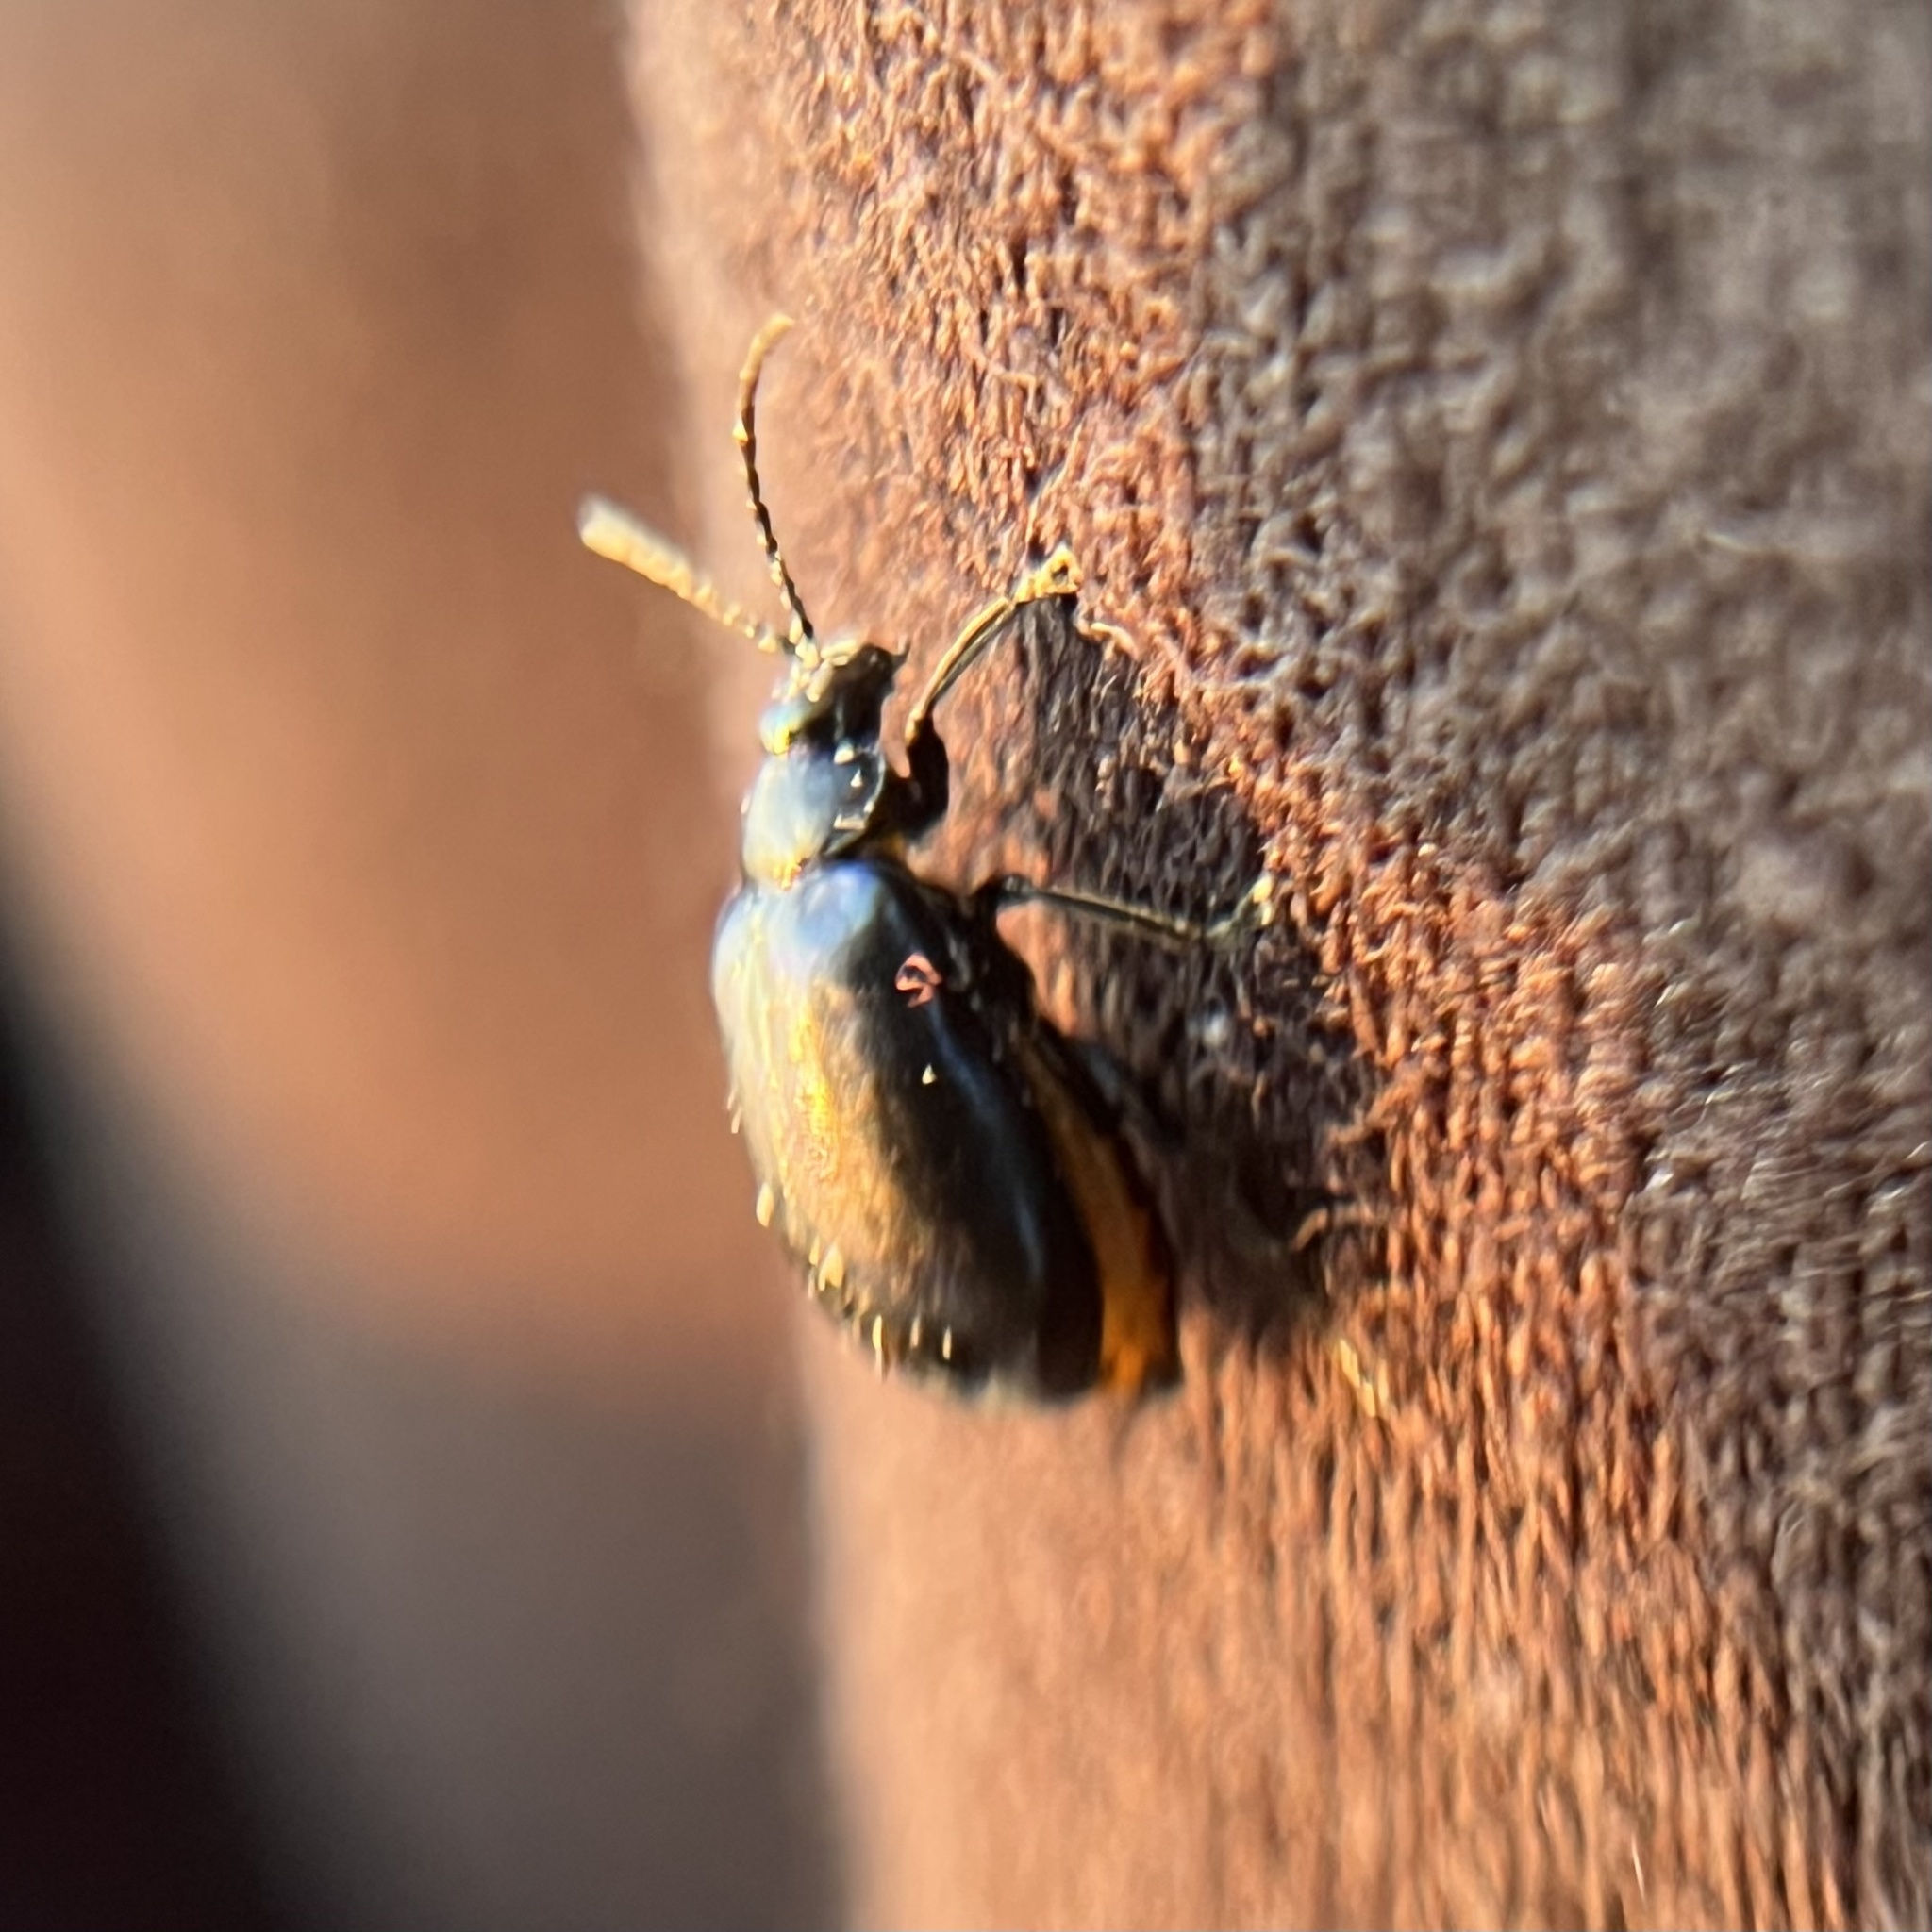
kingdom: Animalia
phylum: Arthropoda
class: Insecta
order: Coleoptera
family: Chrysomelidae
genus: Agelastica
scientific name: Agelastica alni
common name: Alder leaf beetle
